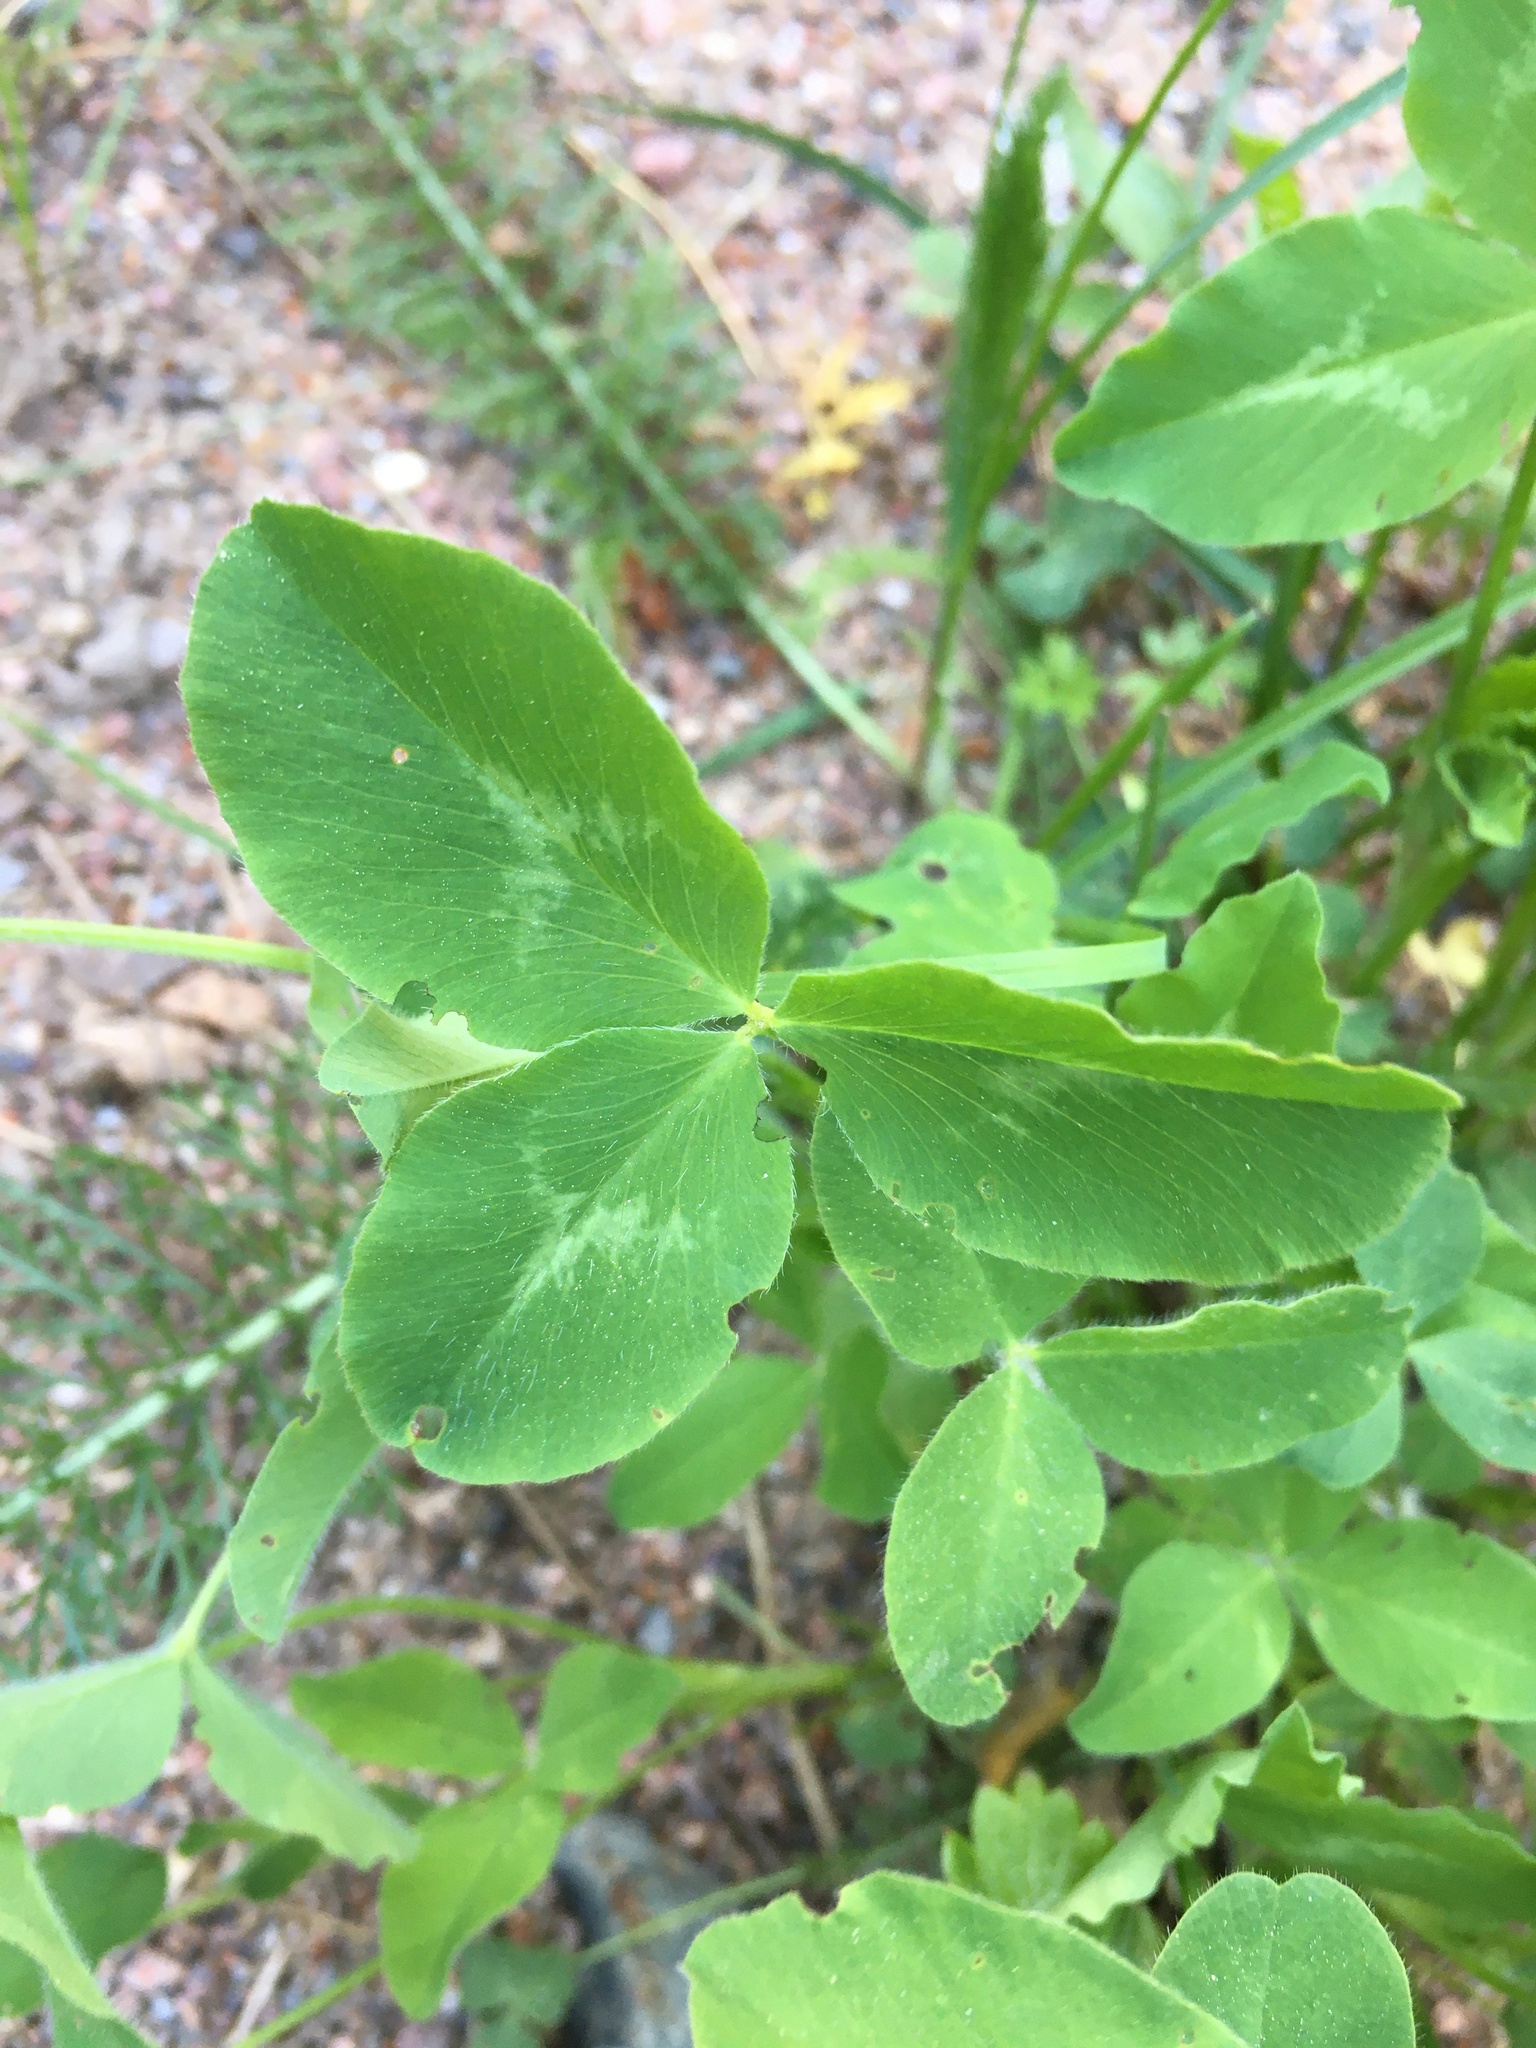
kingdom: Plantae
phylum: Tracheophyta
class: Magnoliopsida
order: Fabales
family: Fabaceae
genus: Trifolium
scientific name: Trifolium pratense
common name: Red clover
